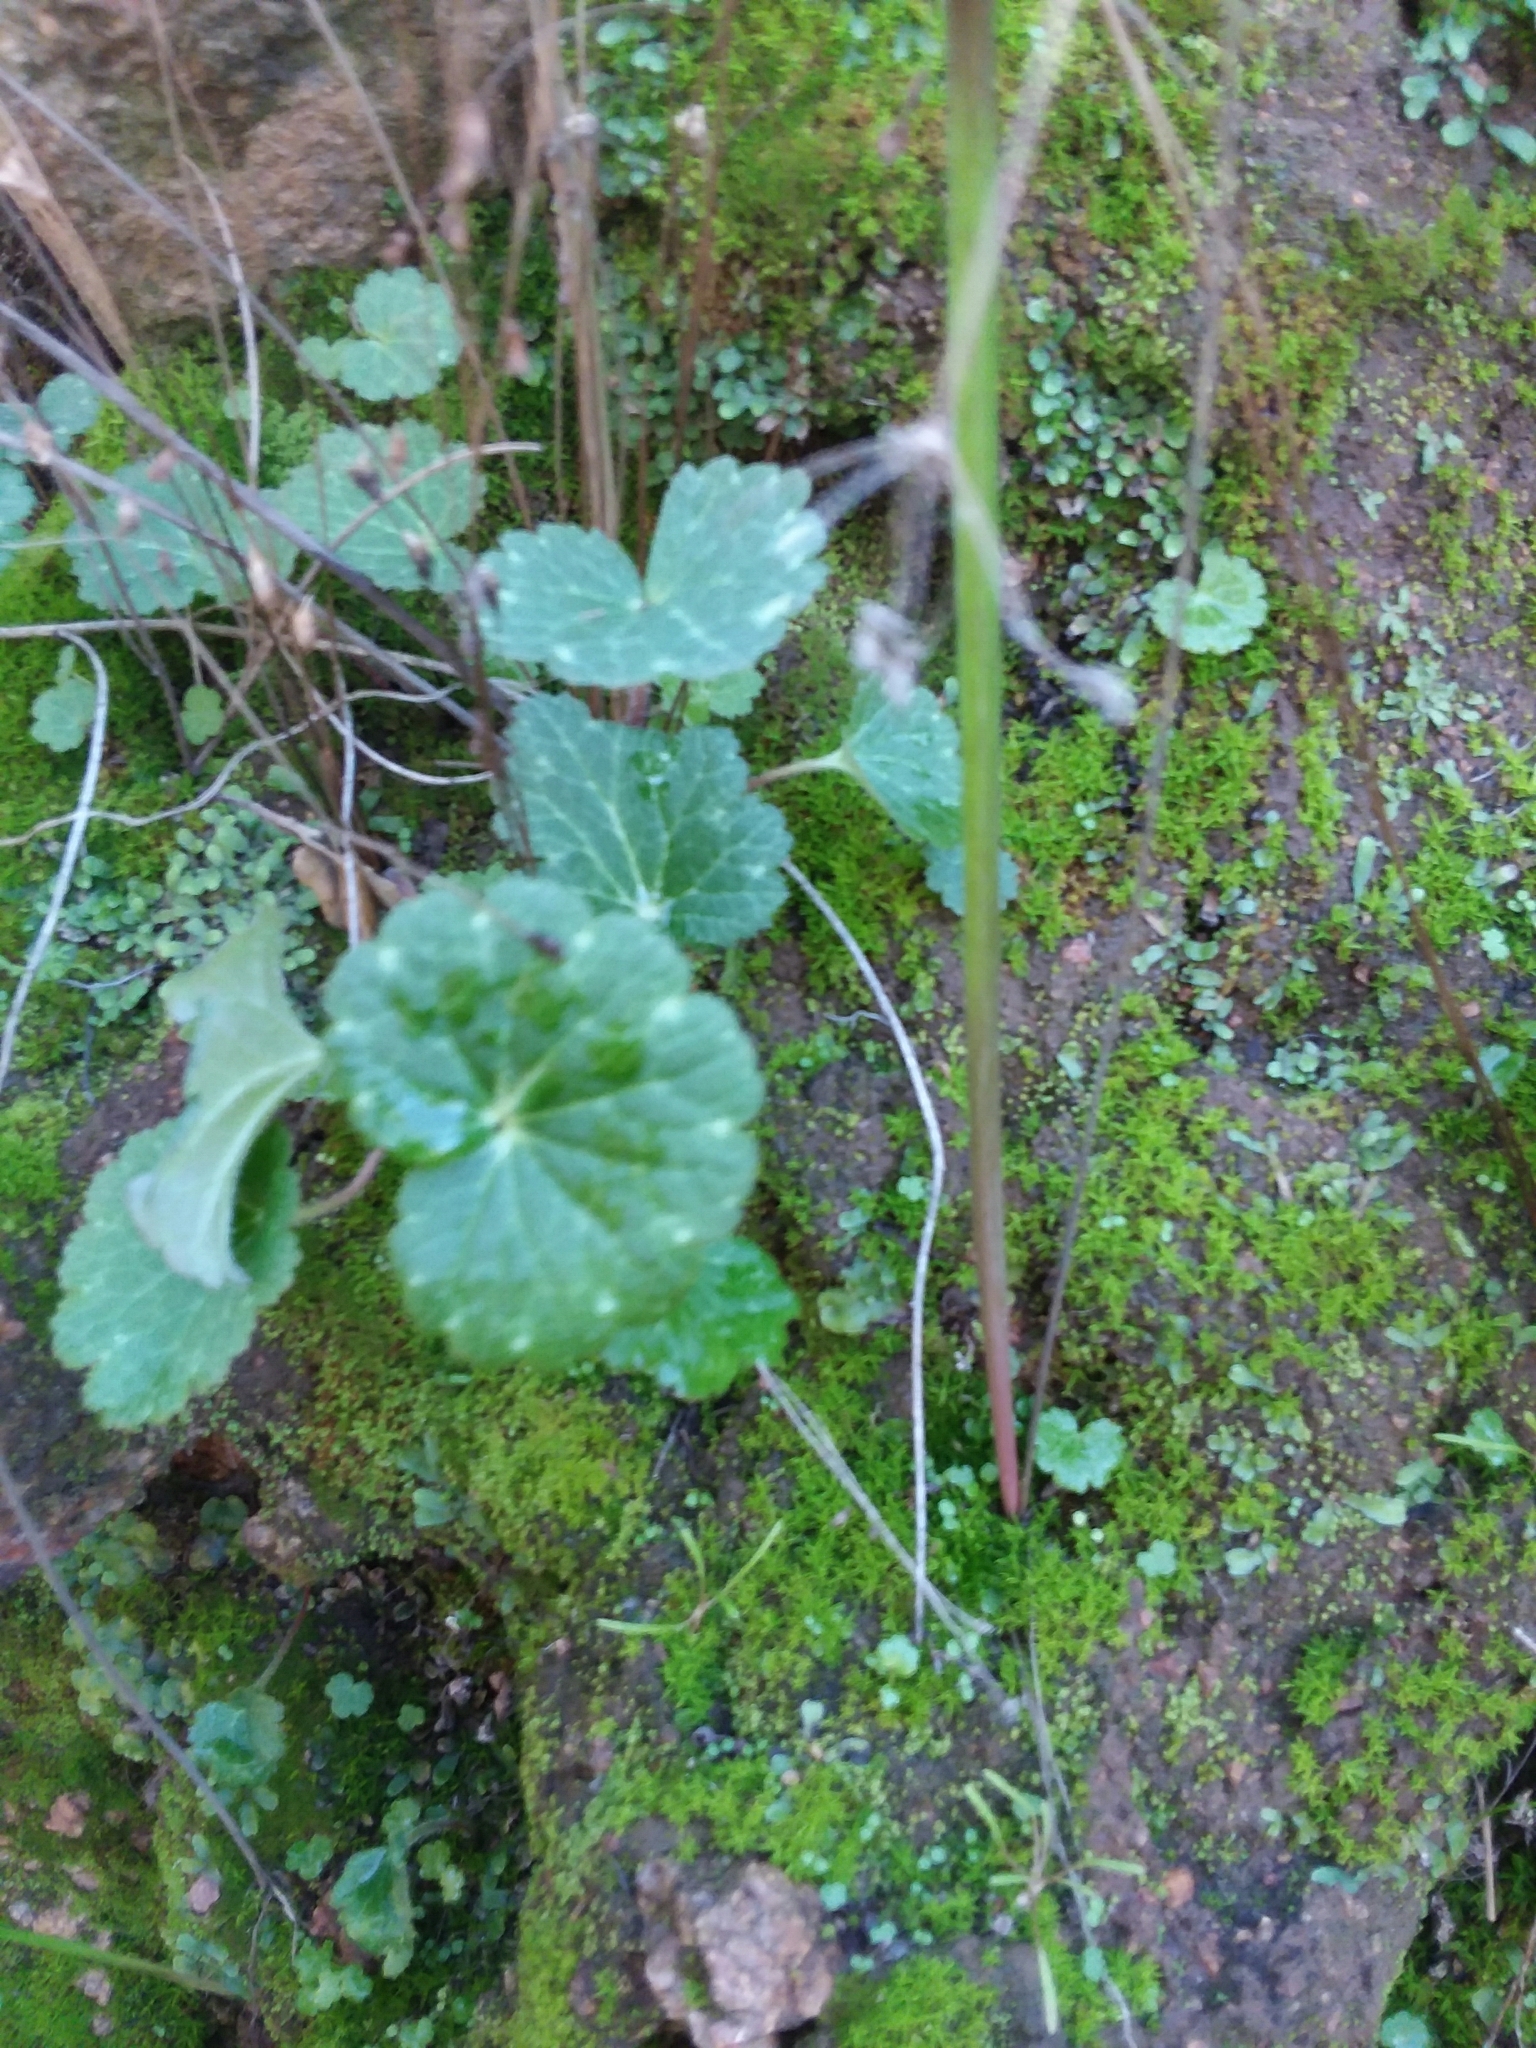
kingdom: Plantae
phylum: Tracheophyta
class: Magnoliopsida
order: Saxifragales
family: Saxifragaceae
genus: Jepsonia
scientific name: Jepsonia parryi
